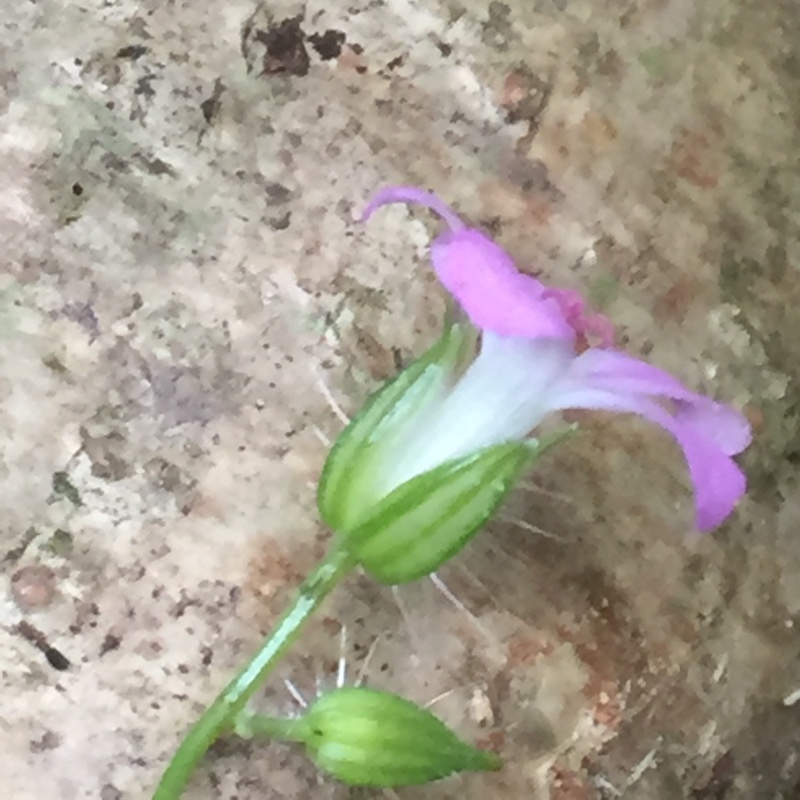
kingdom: Plantae
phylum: Tracheophyta
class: Magnoliopsida
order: Geraniales
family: Geraniaceae
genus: Geranium
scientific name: Geranium robertianum
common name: Herb-robert
